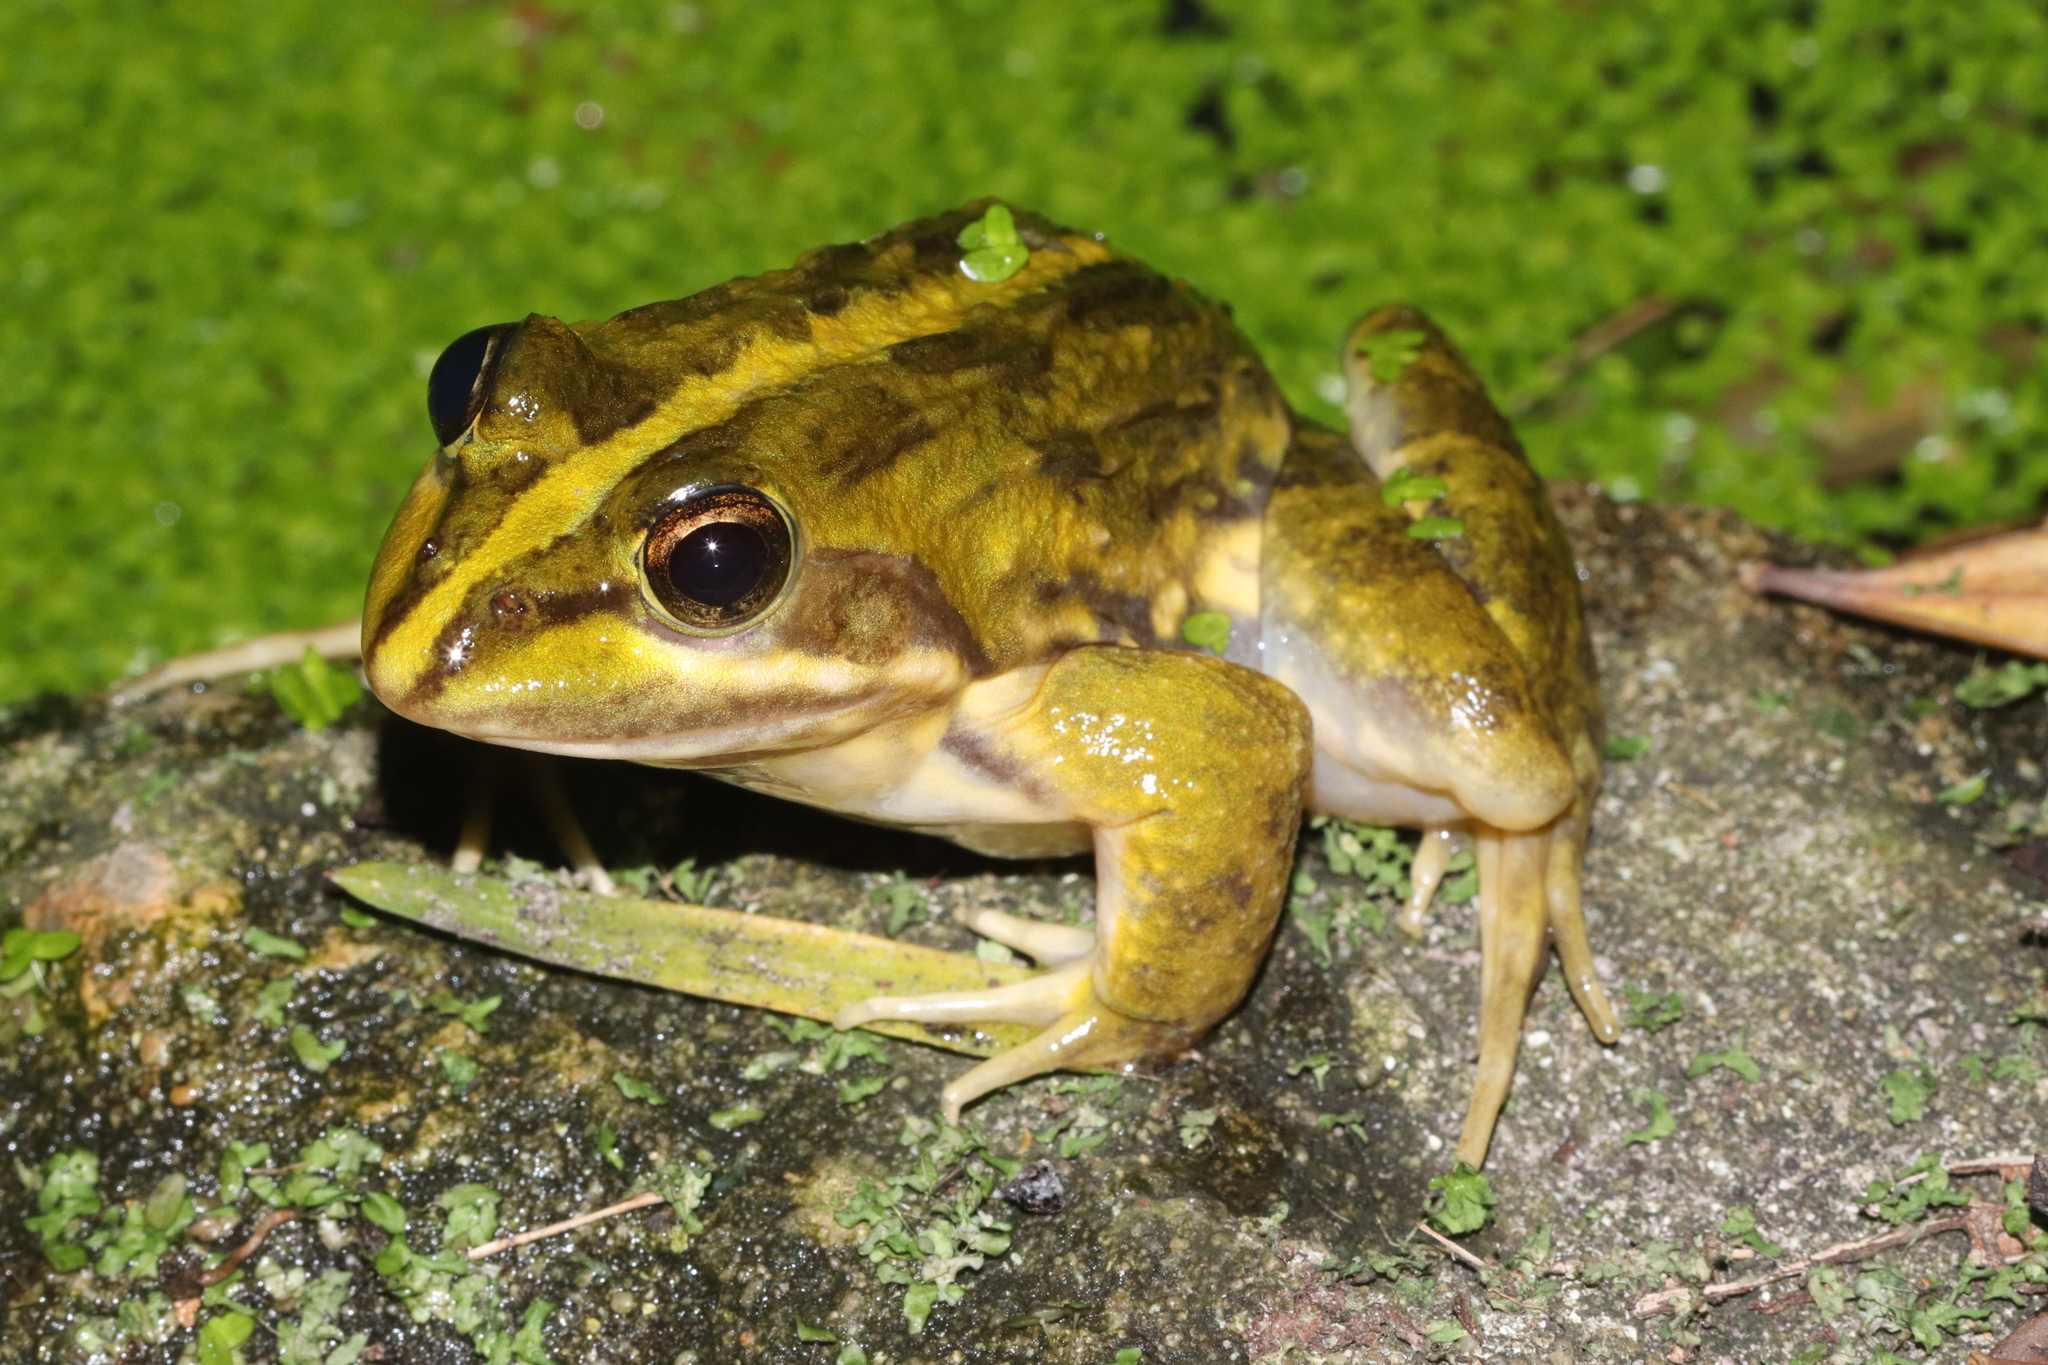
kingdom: Animalia
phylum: Chordata
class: Amphibia
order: Anura
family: Pyxicephalidae
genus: Amietia
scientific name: Amietia fuscigula
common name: Cape rana
